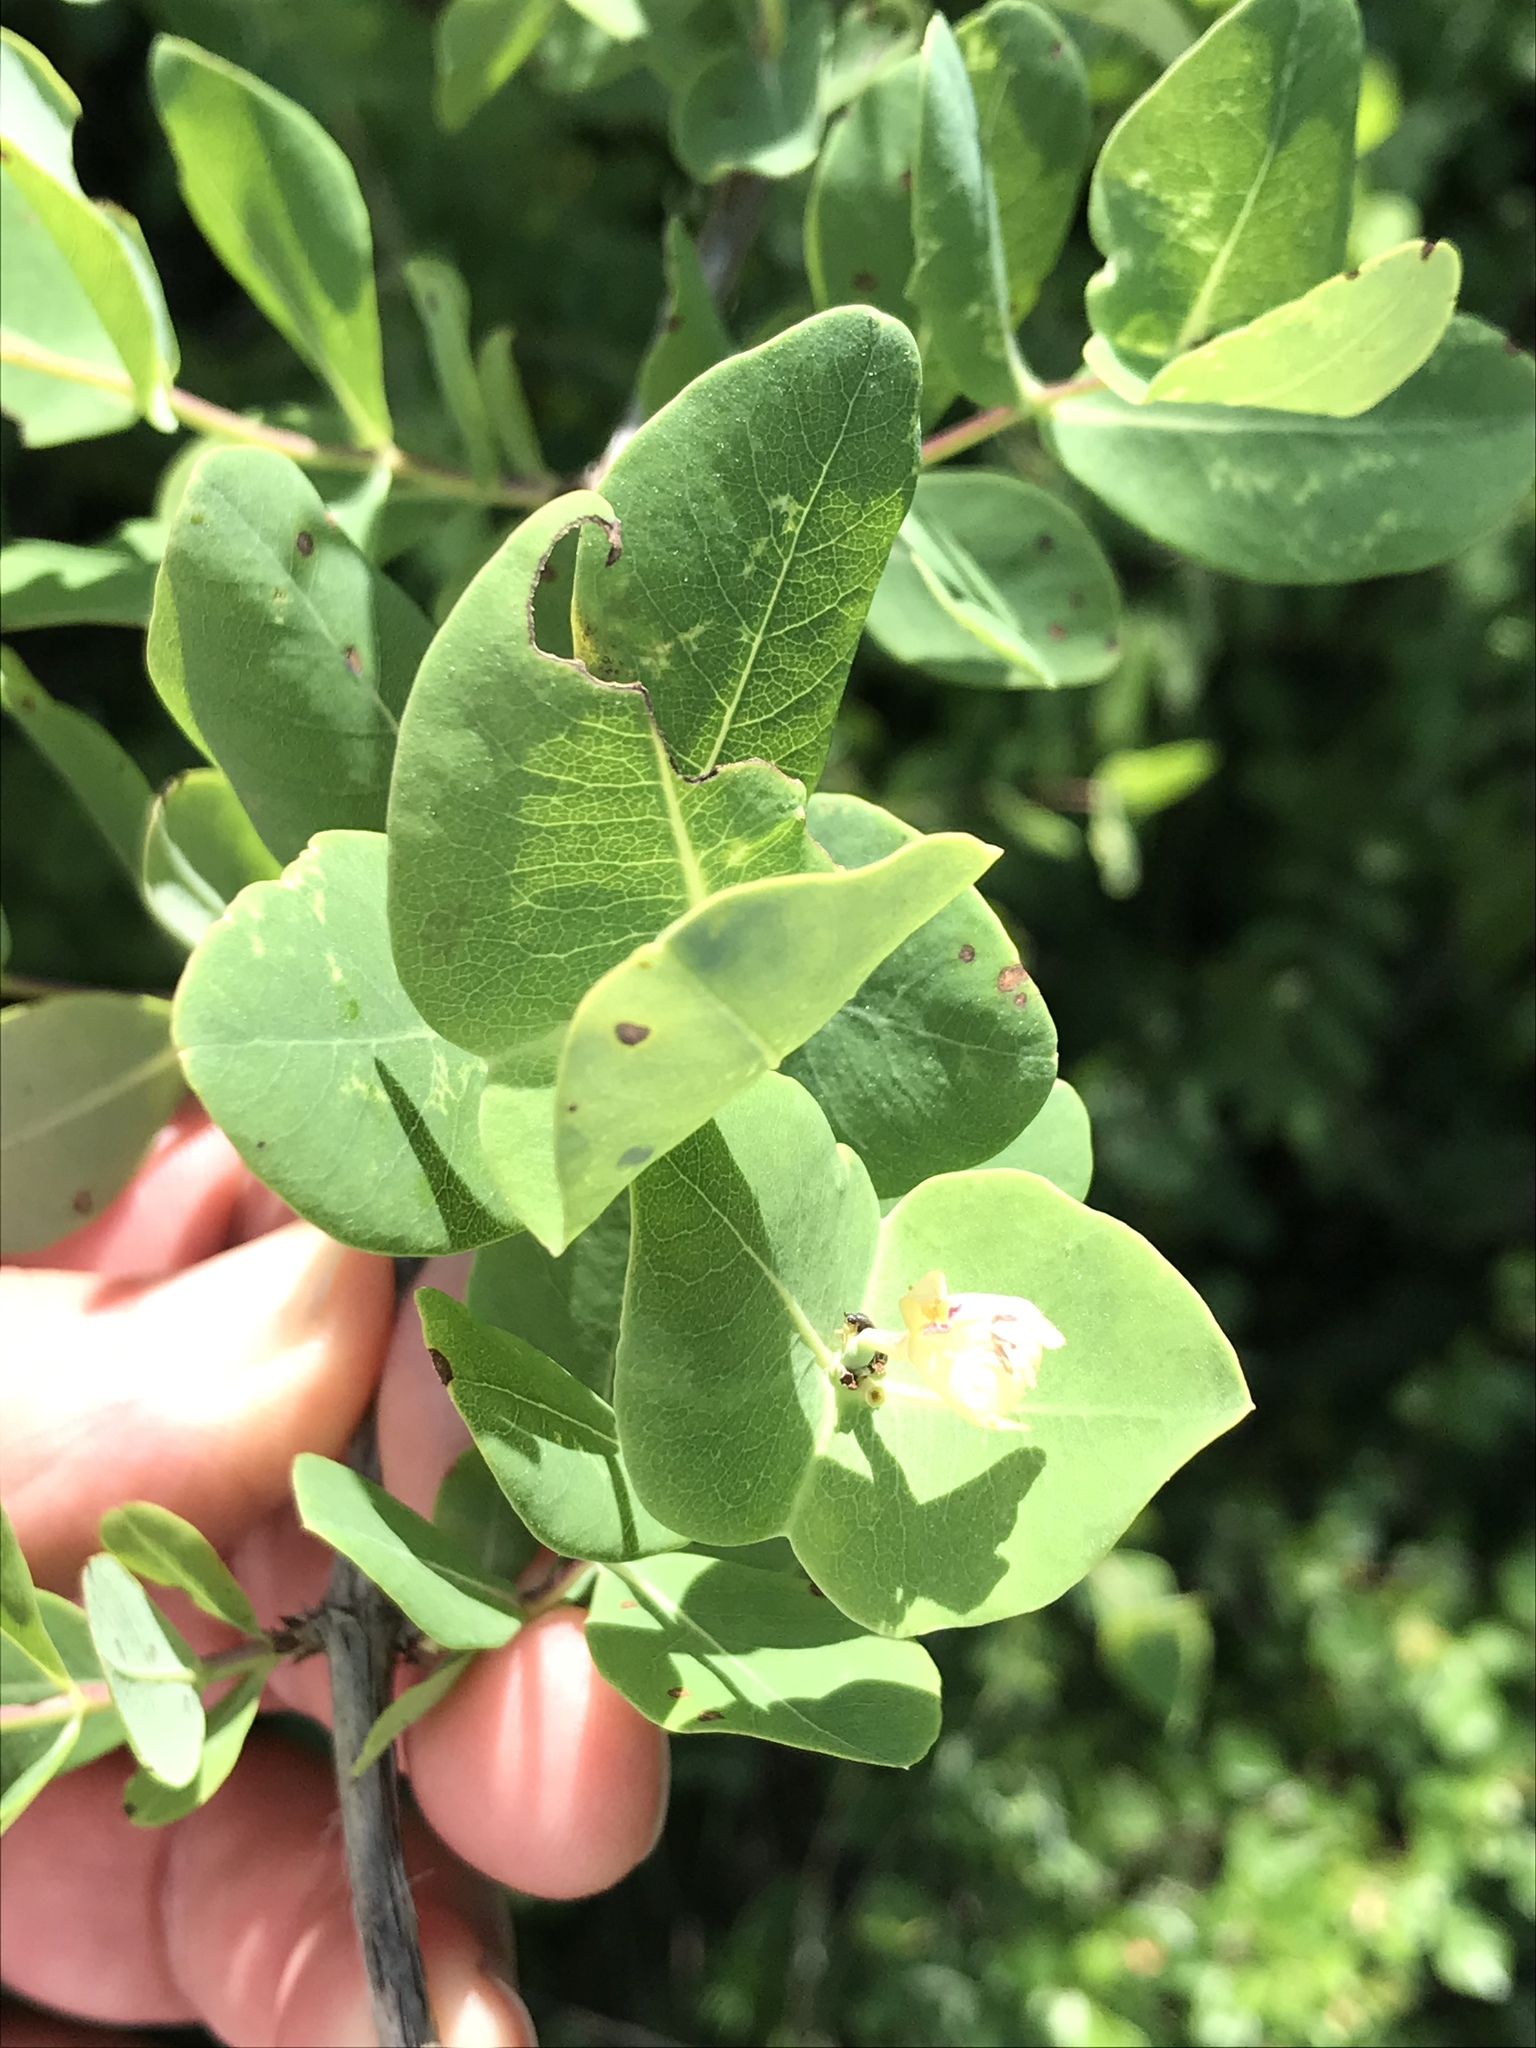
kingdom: Plantae
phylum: Tracheophyta
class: Magnoliopsida
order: Dipsacales
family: Caprifoliaceae
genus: Lonicera
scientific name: Lonicera albiflora
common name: White honeysuckle
